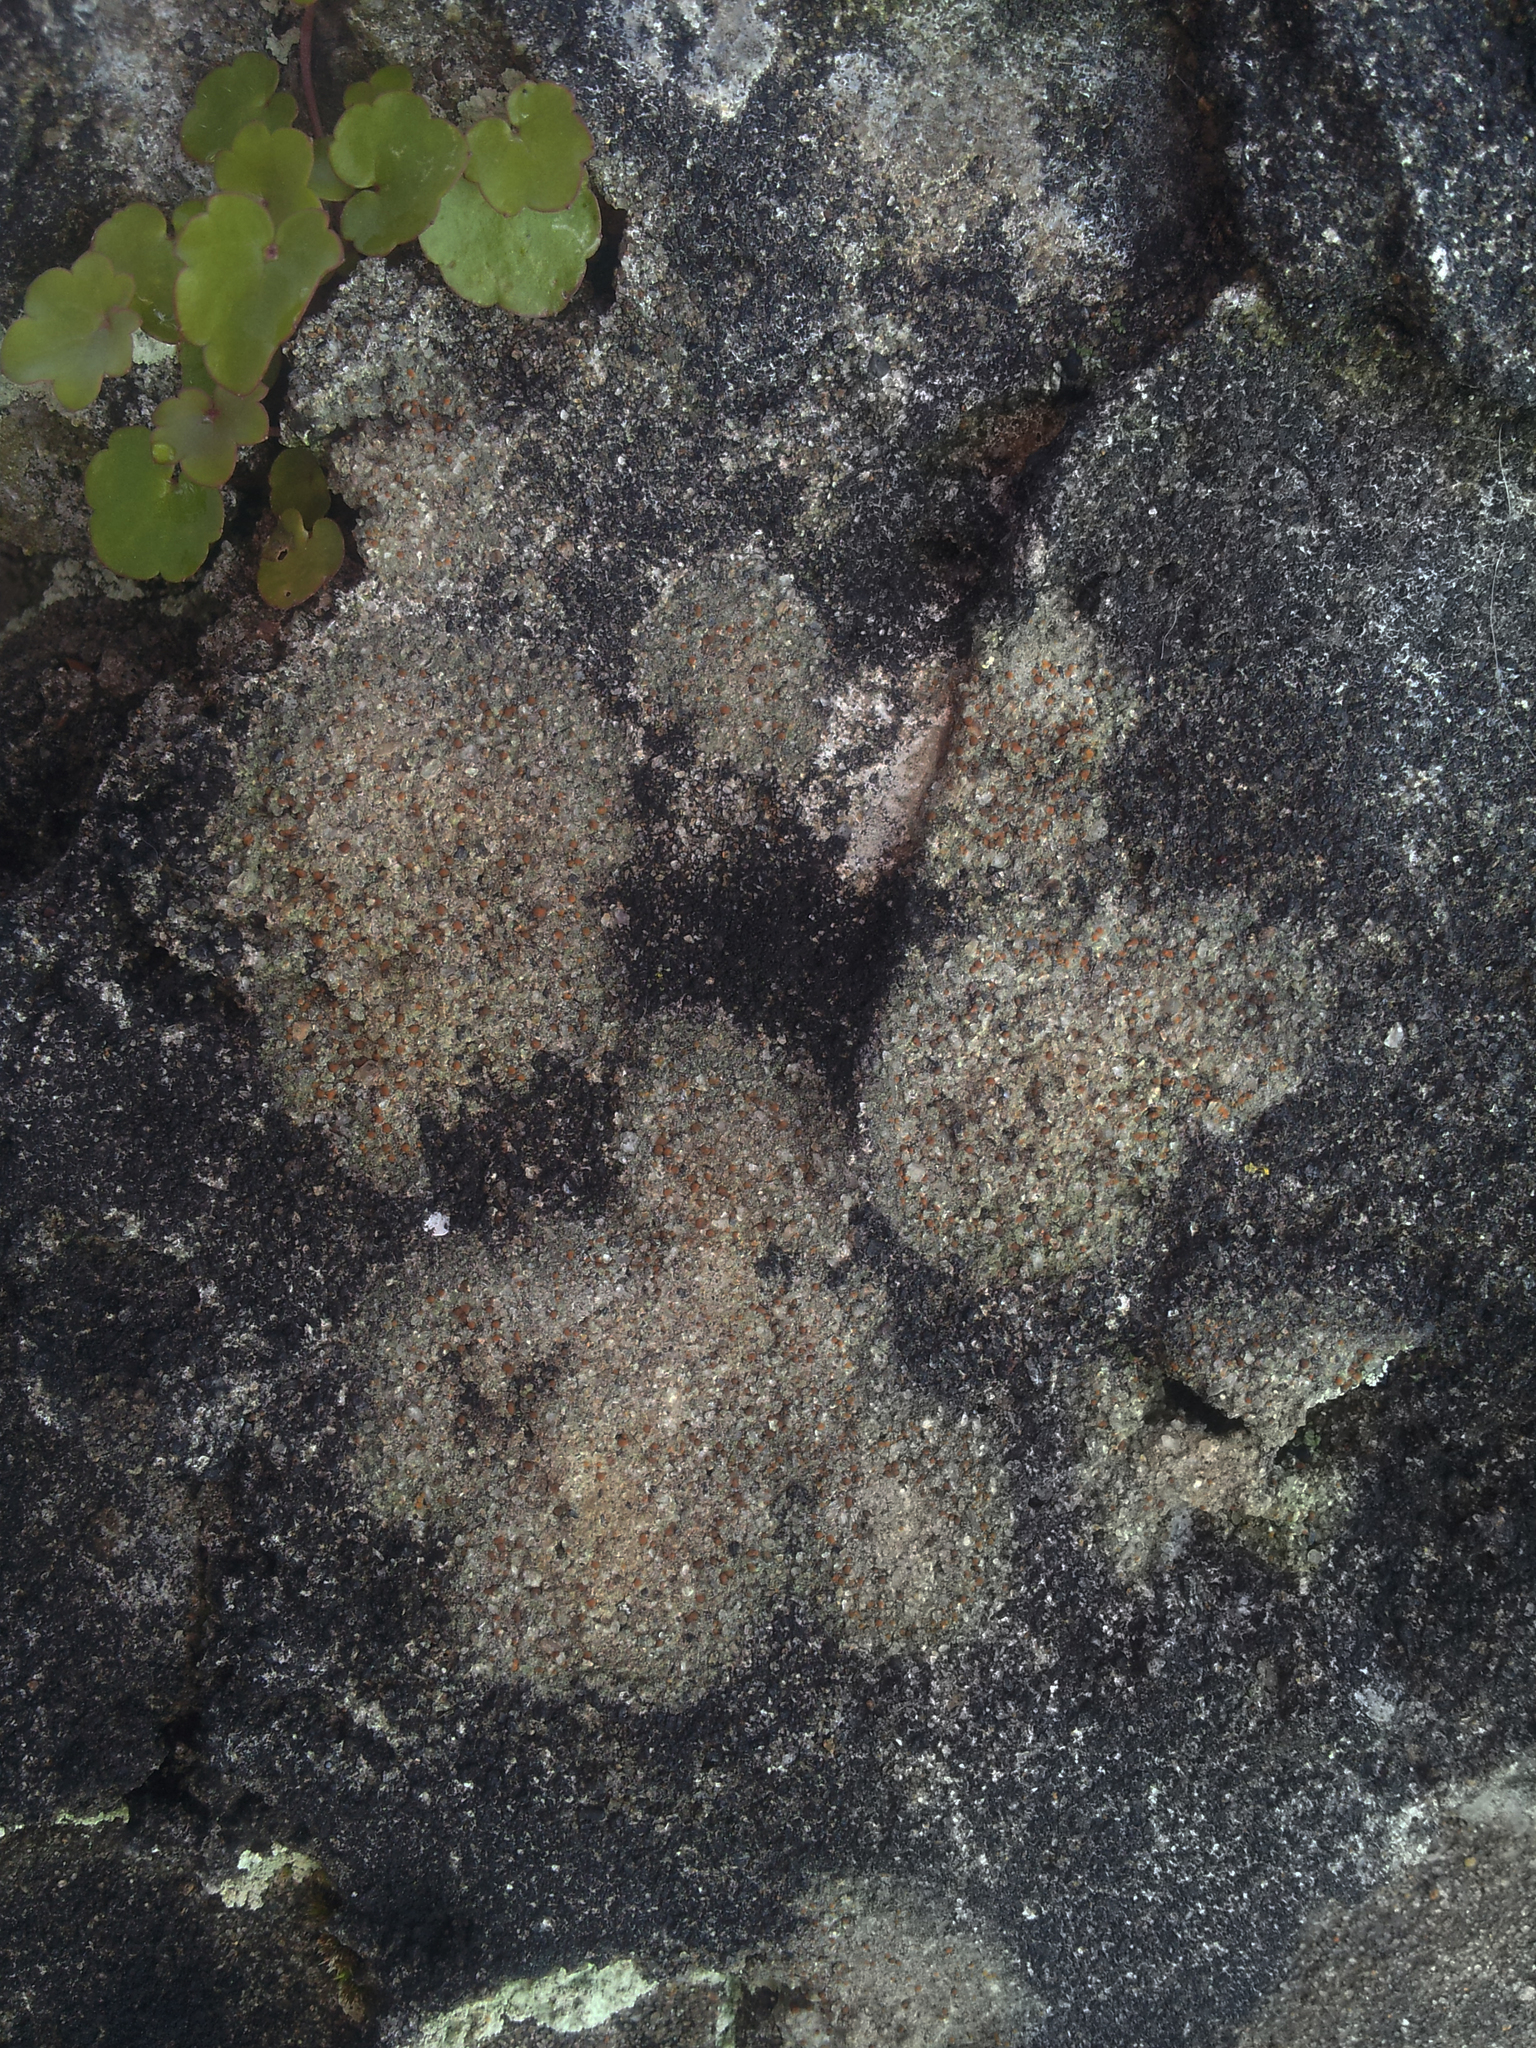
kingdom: Fungi
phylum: Ascomycota
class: Lecanoromycetes
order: Lecanorales
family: Psoraceae
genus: Protoblastenia
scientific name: Protoblastenia rupestris
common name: Chewing gum lichen
